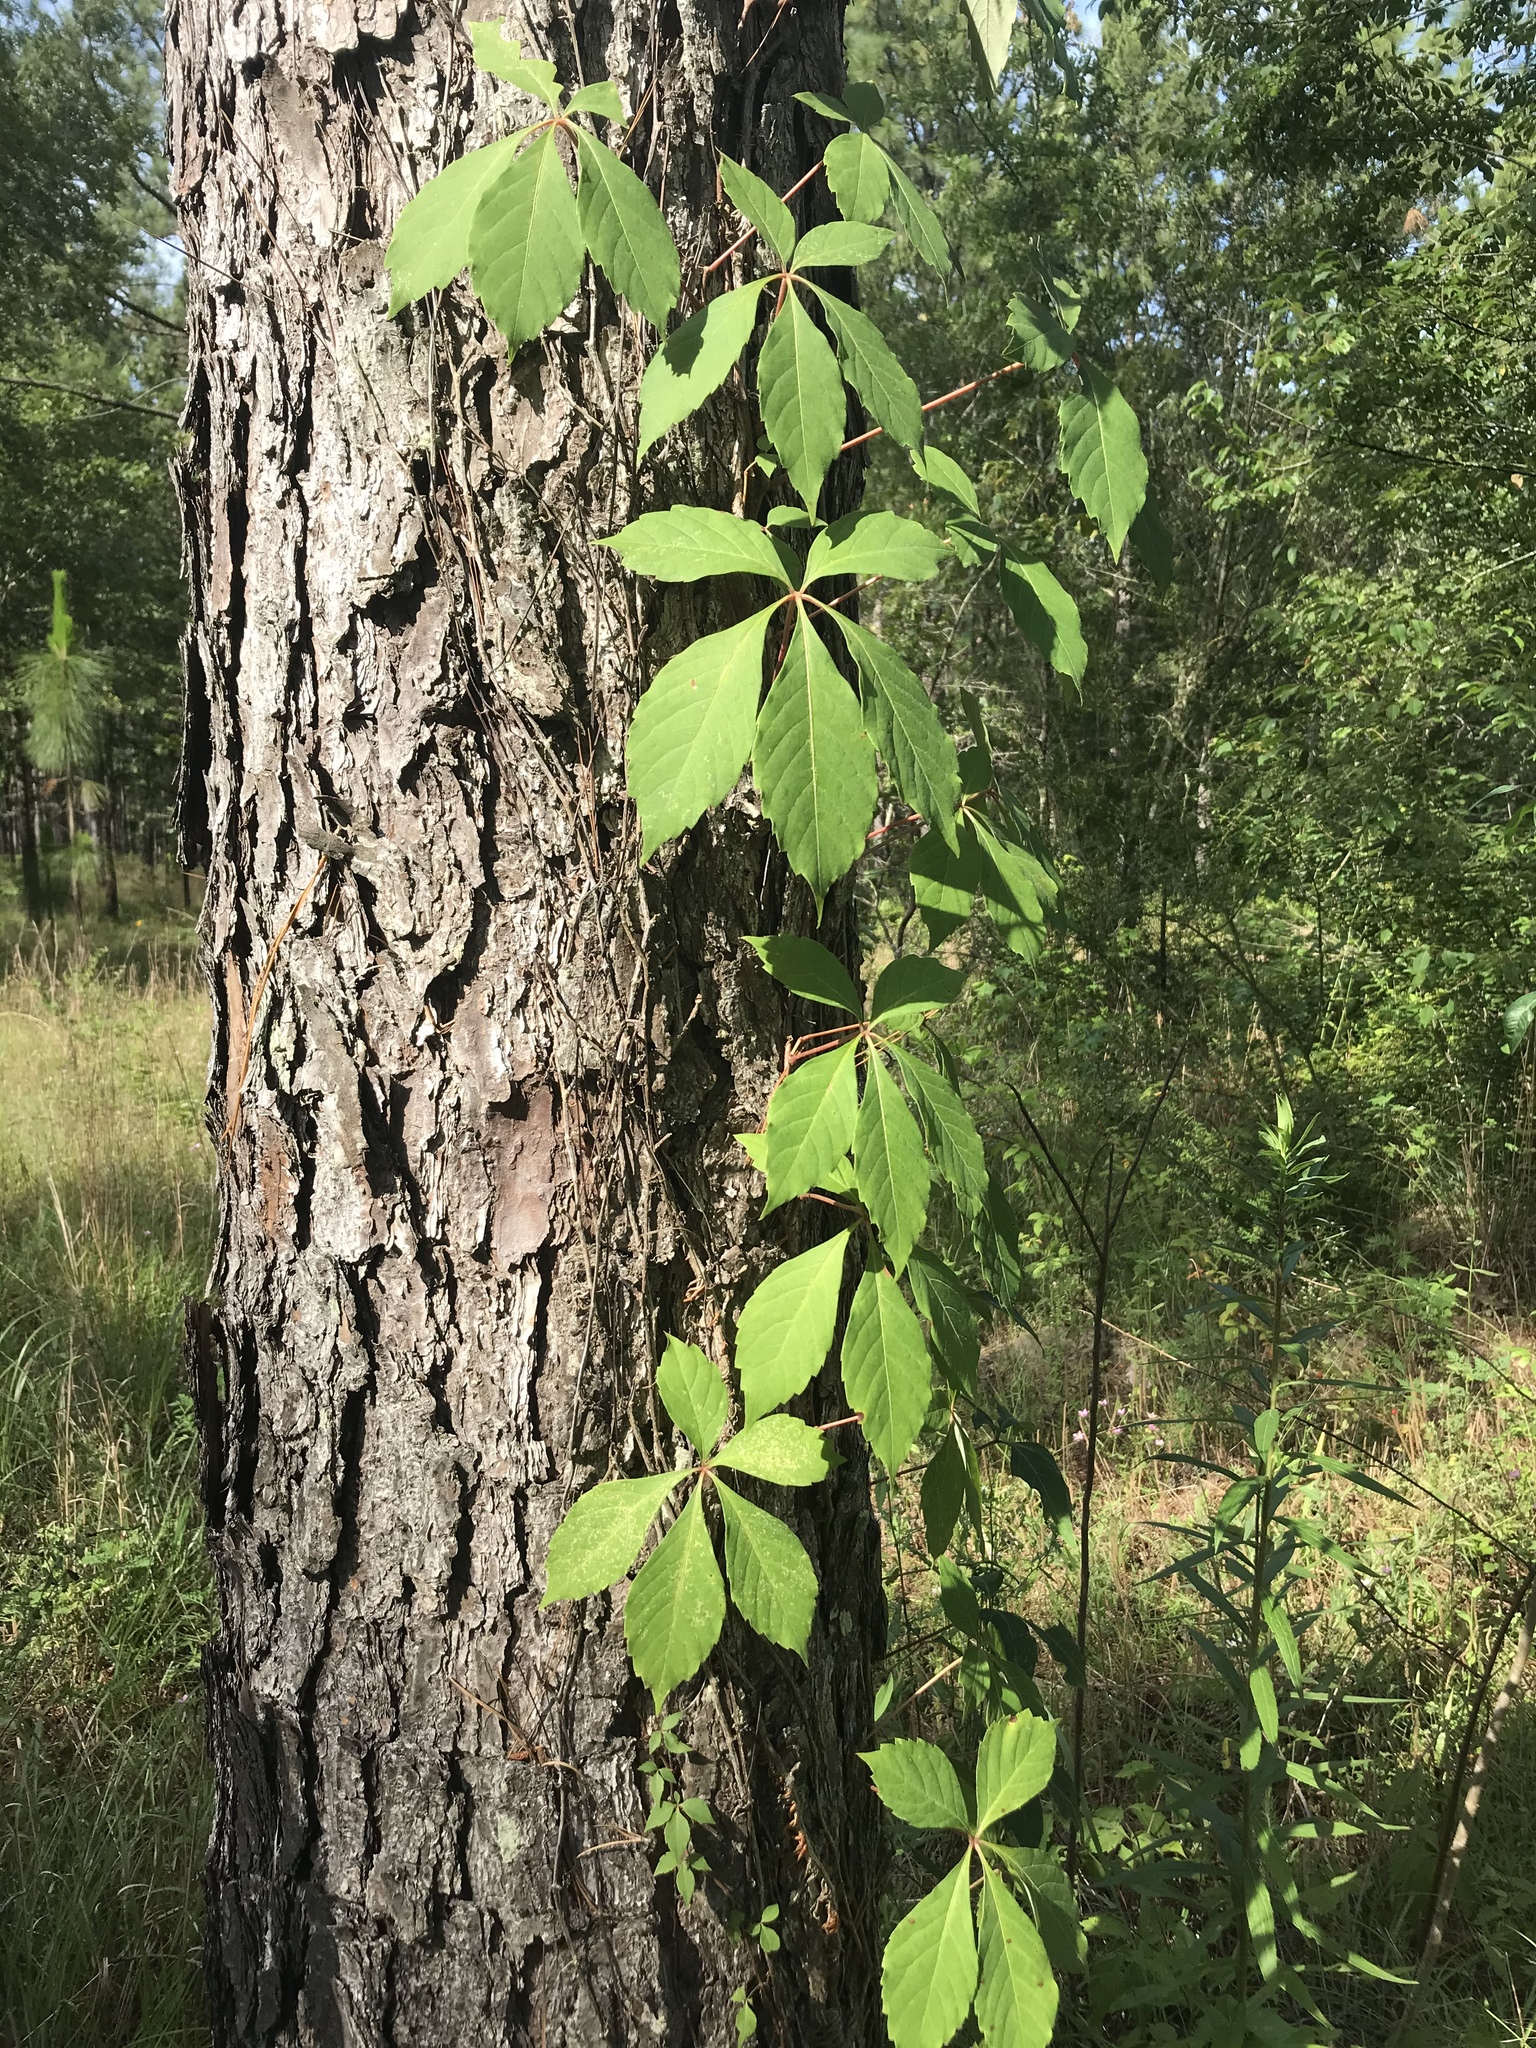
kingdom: Plantae
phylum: Tracheophyta
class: Magnoliopsida
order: Vitales
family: Vitaceae
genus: Parthenocissus
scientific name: Parthenocissus quinquefolia
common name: Virginia-creeper
